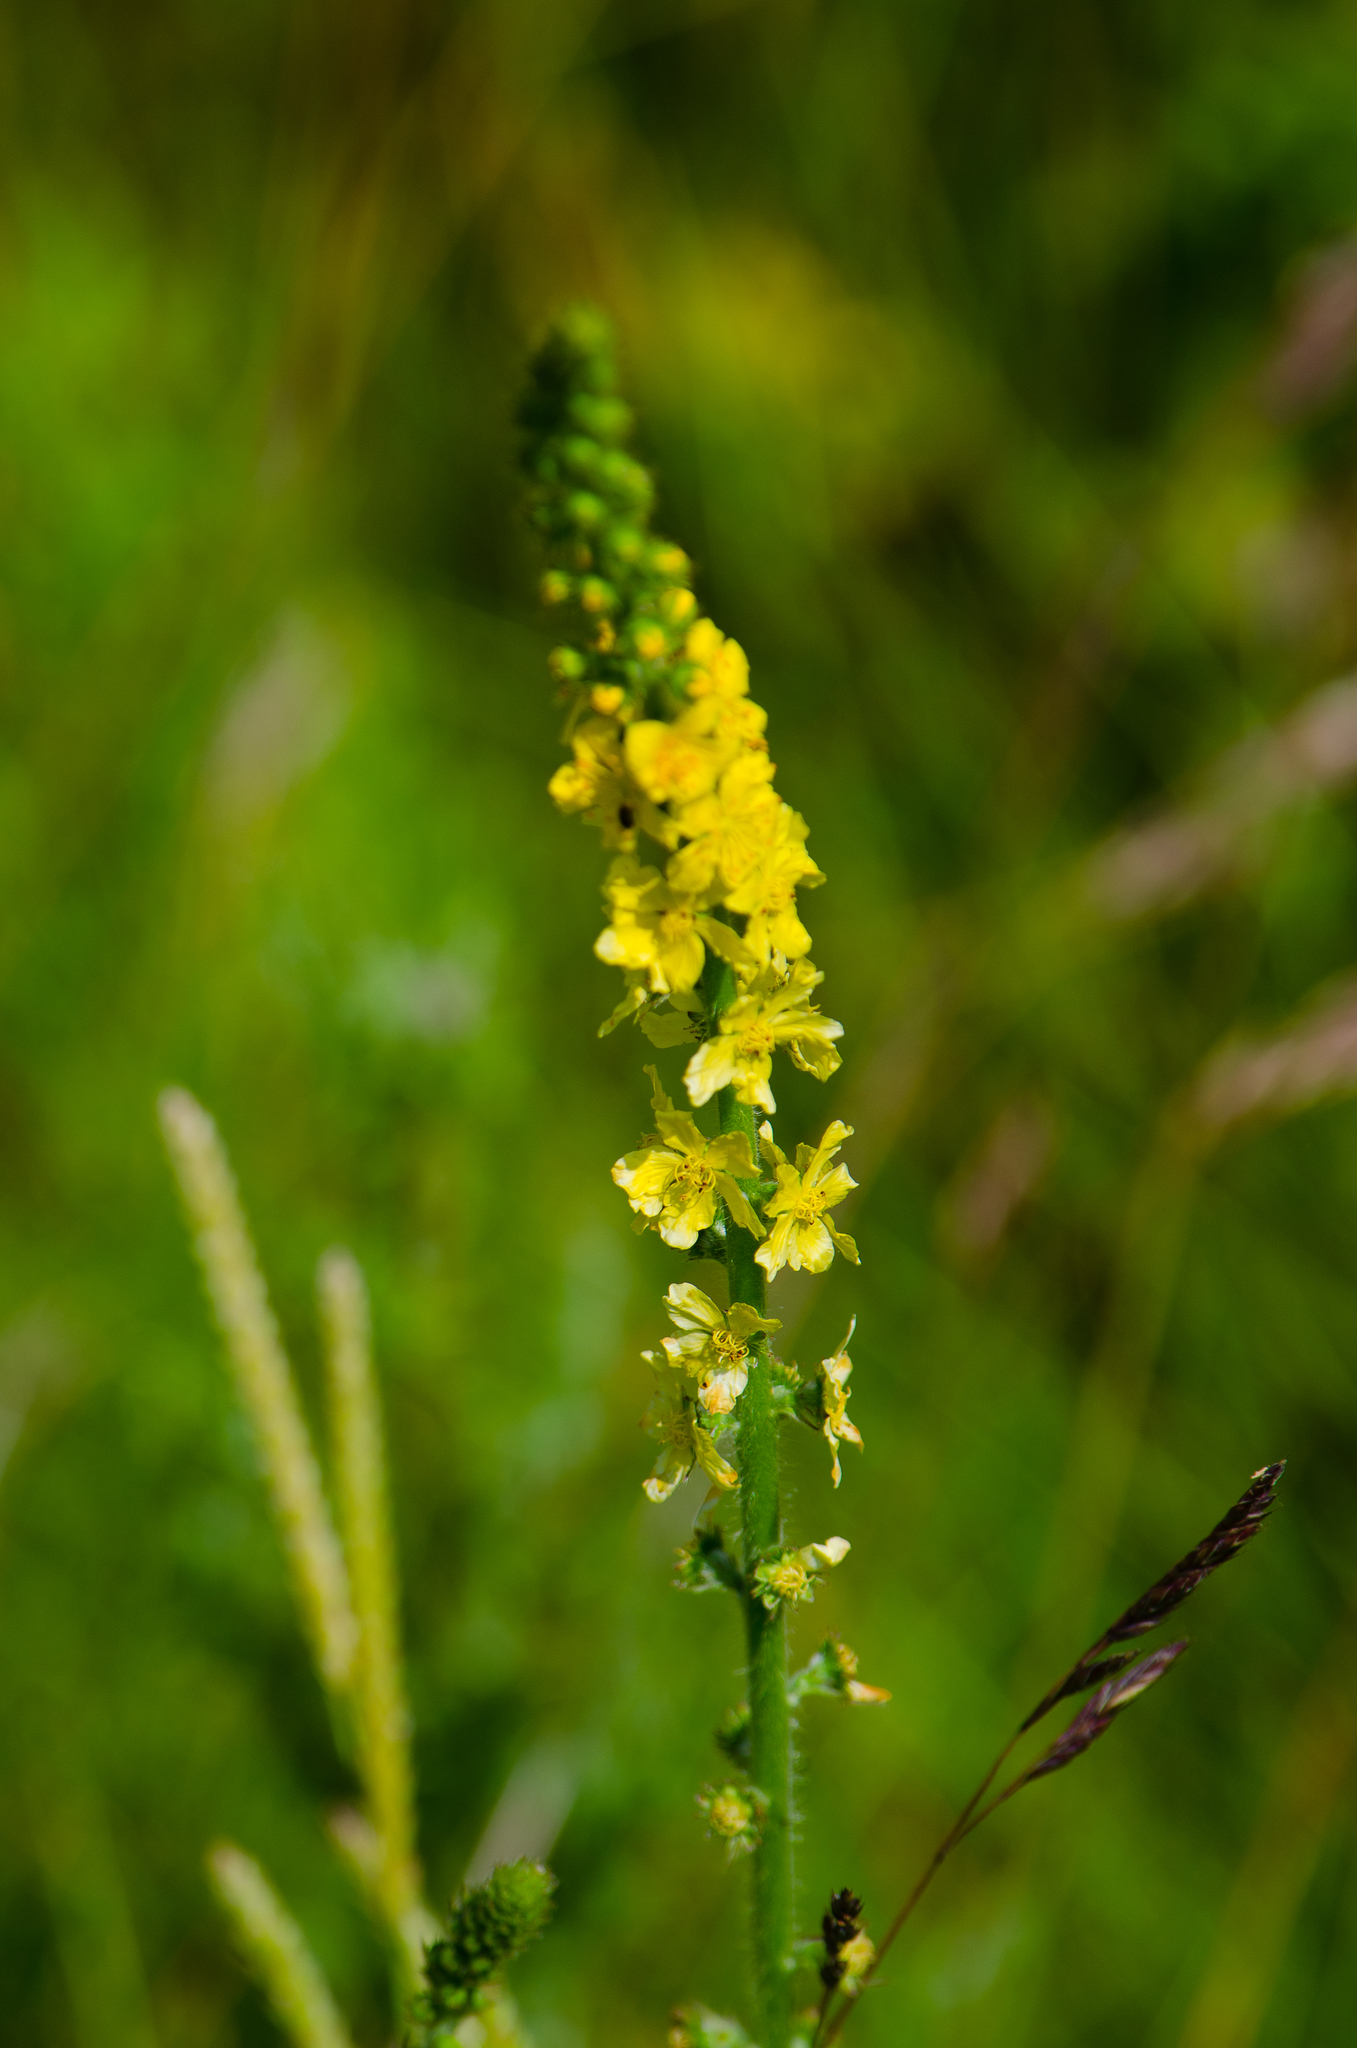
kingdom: Plantae
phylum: Tracheophyta
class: Magnoliopsida
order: Rosales
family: Rosaceae
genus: Agrimonia
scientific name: Agrimonia eupatoria
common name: Agrimony
